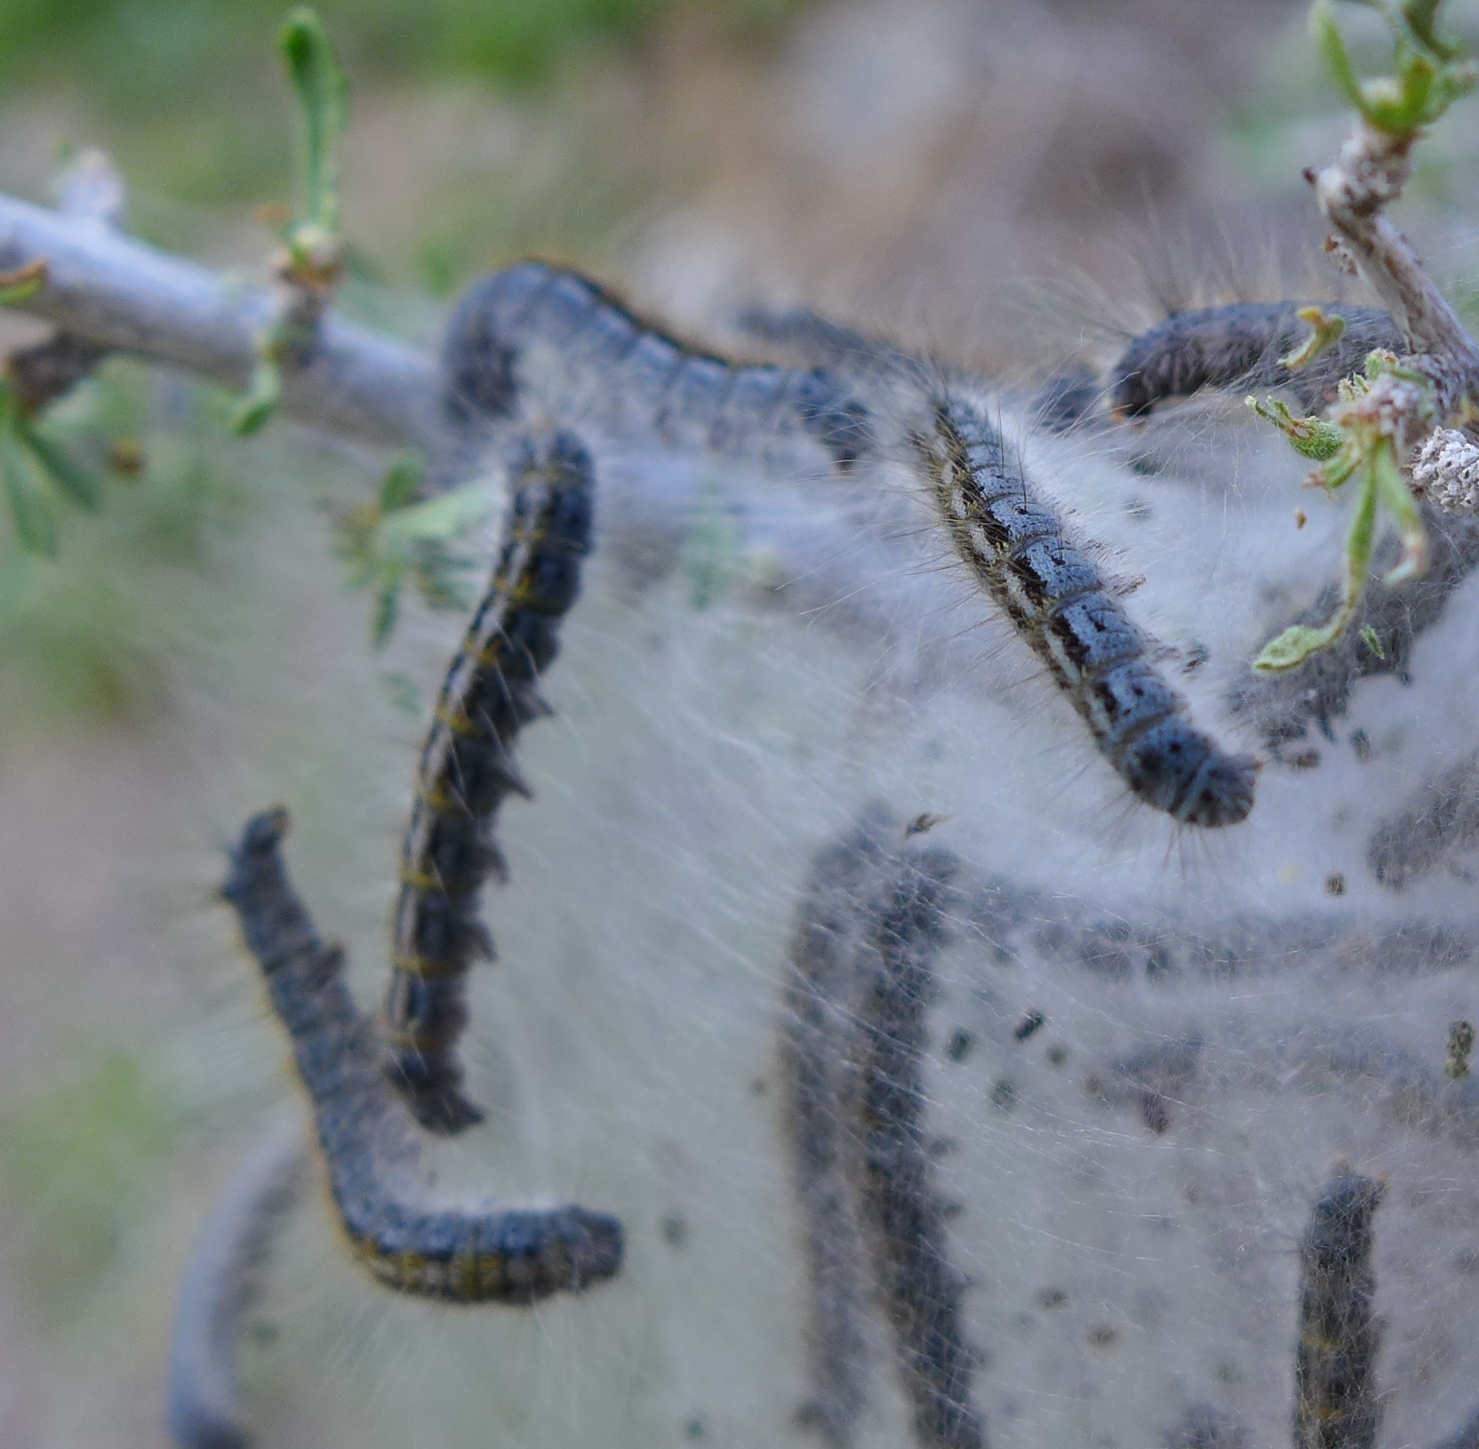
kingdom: Animalia
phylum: Arthropoda
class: Insecta
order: Lepidoptera
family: Lasiocampidae
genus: Malacosoma
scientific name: Malacosoma californica
